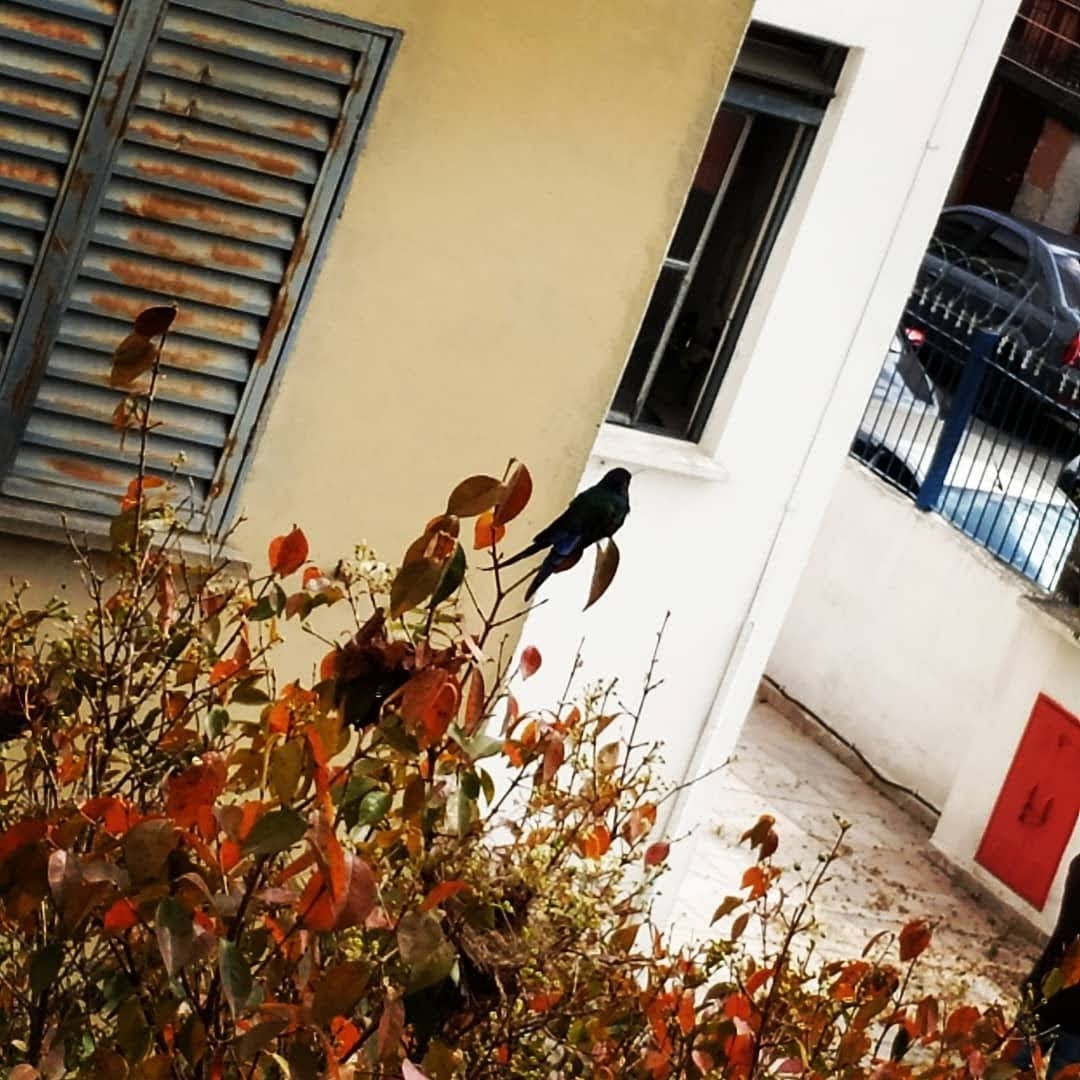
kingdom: Animalia
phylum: Chordata
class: Aves
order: Apodiformes
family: Trochilidae
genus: Eupetomena
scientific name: Eupetomena macroura
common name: Swallow-tailed hummingbird
